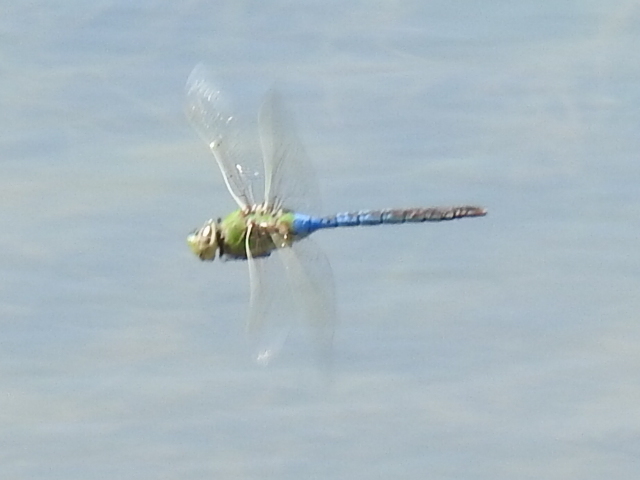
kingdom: Animalia
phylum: Arthropoda
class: Insecta
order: Odonata
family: Aeshnidae
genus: Anax
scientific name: Anax junius
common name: Common green darner
